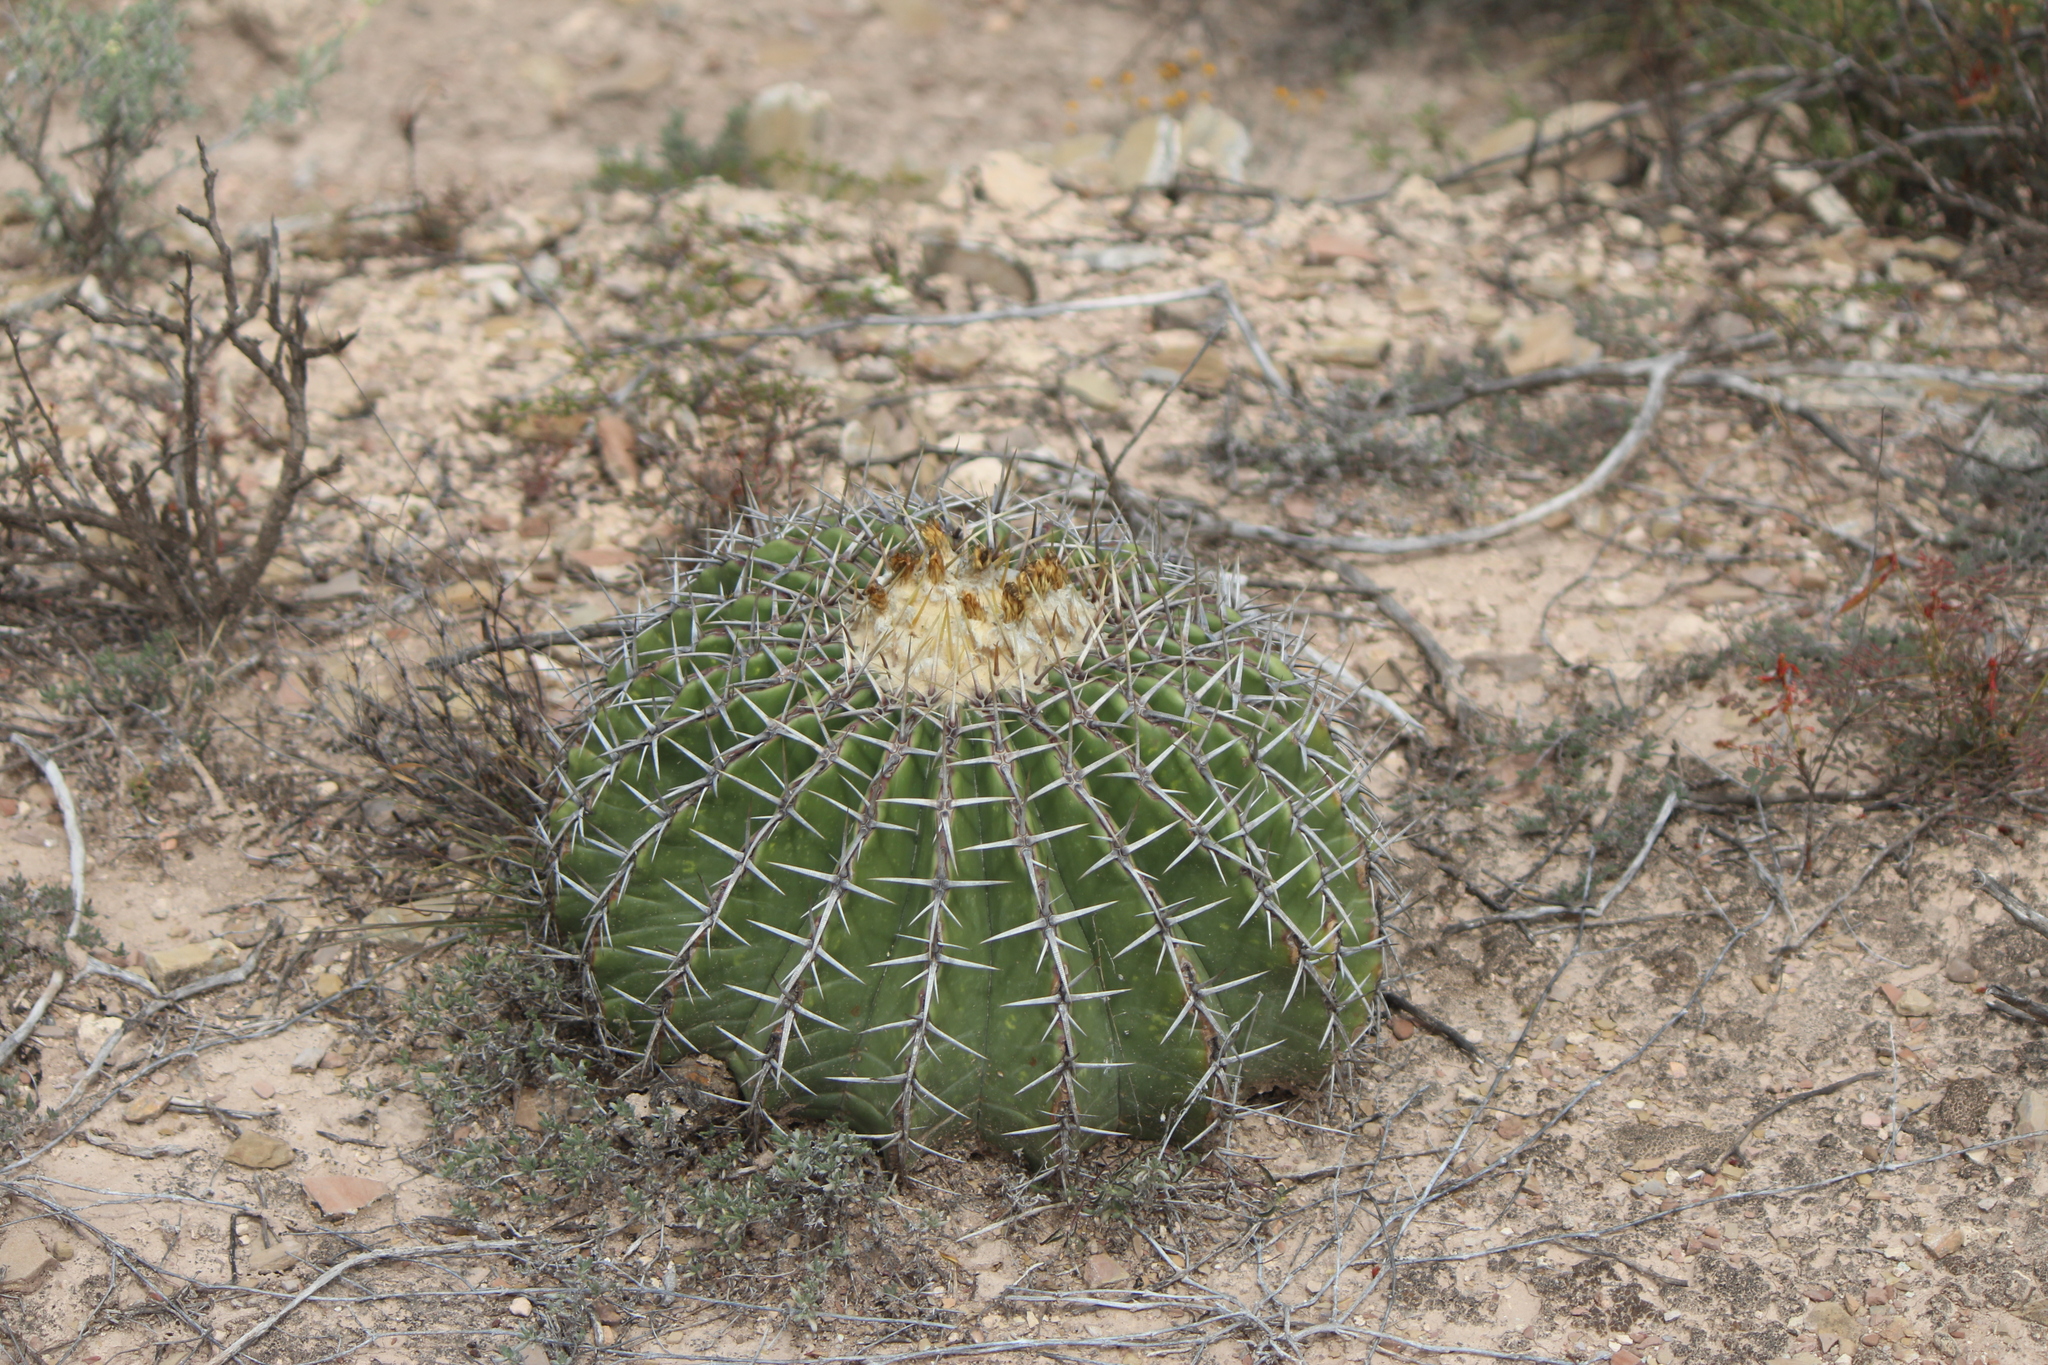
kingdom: Plantae
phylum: Tracheophyta
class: Magnoliopsida
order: Caryophyllales
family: Cactaceae
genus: Echinocactus
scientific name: Echinocactus platyacanthus
